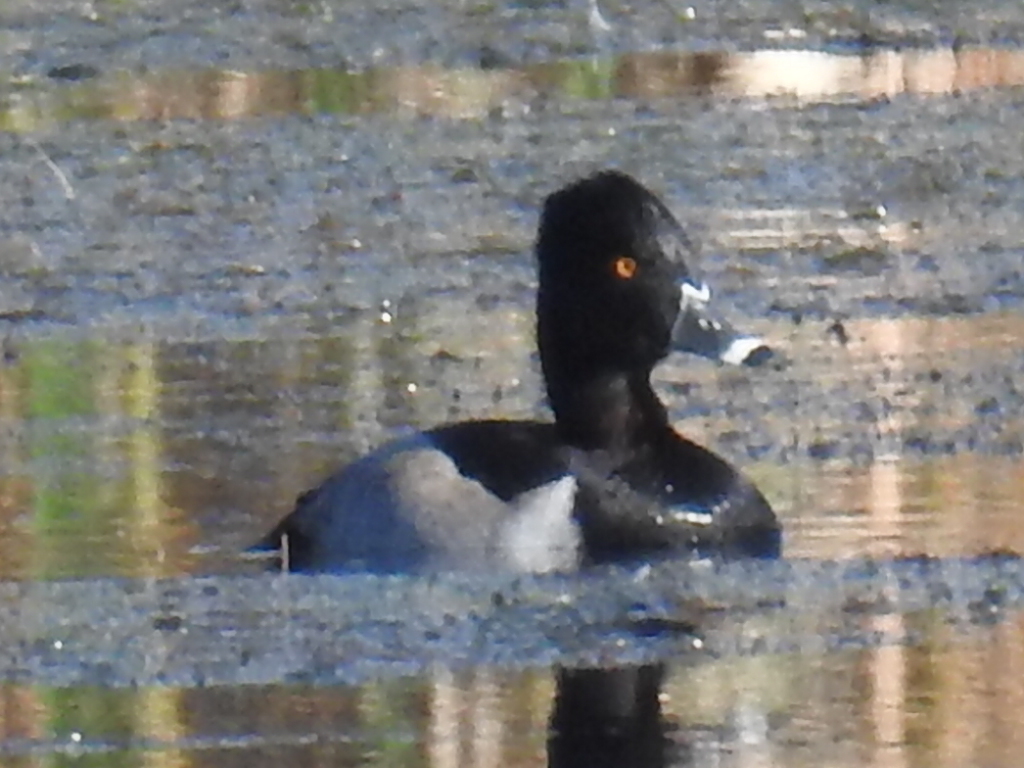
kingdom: Animalia
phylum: Chordata
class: Aves
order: Anseriformes
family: Anatidae
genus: Aythya
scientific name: Aythya collaris
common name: Ring-necked duck
